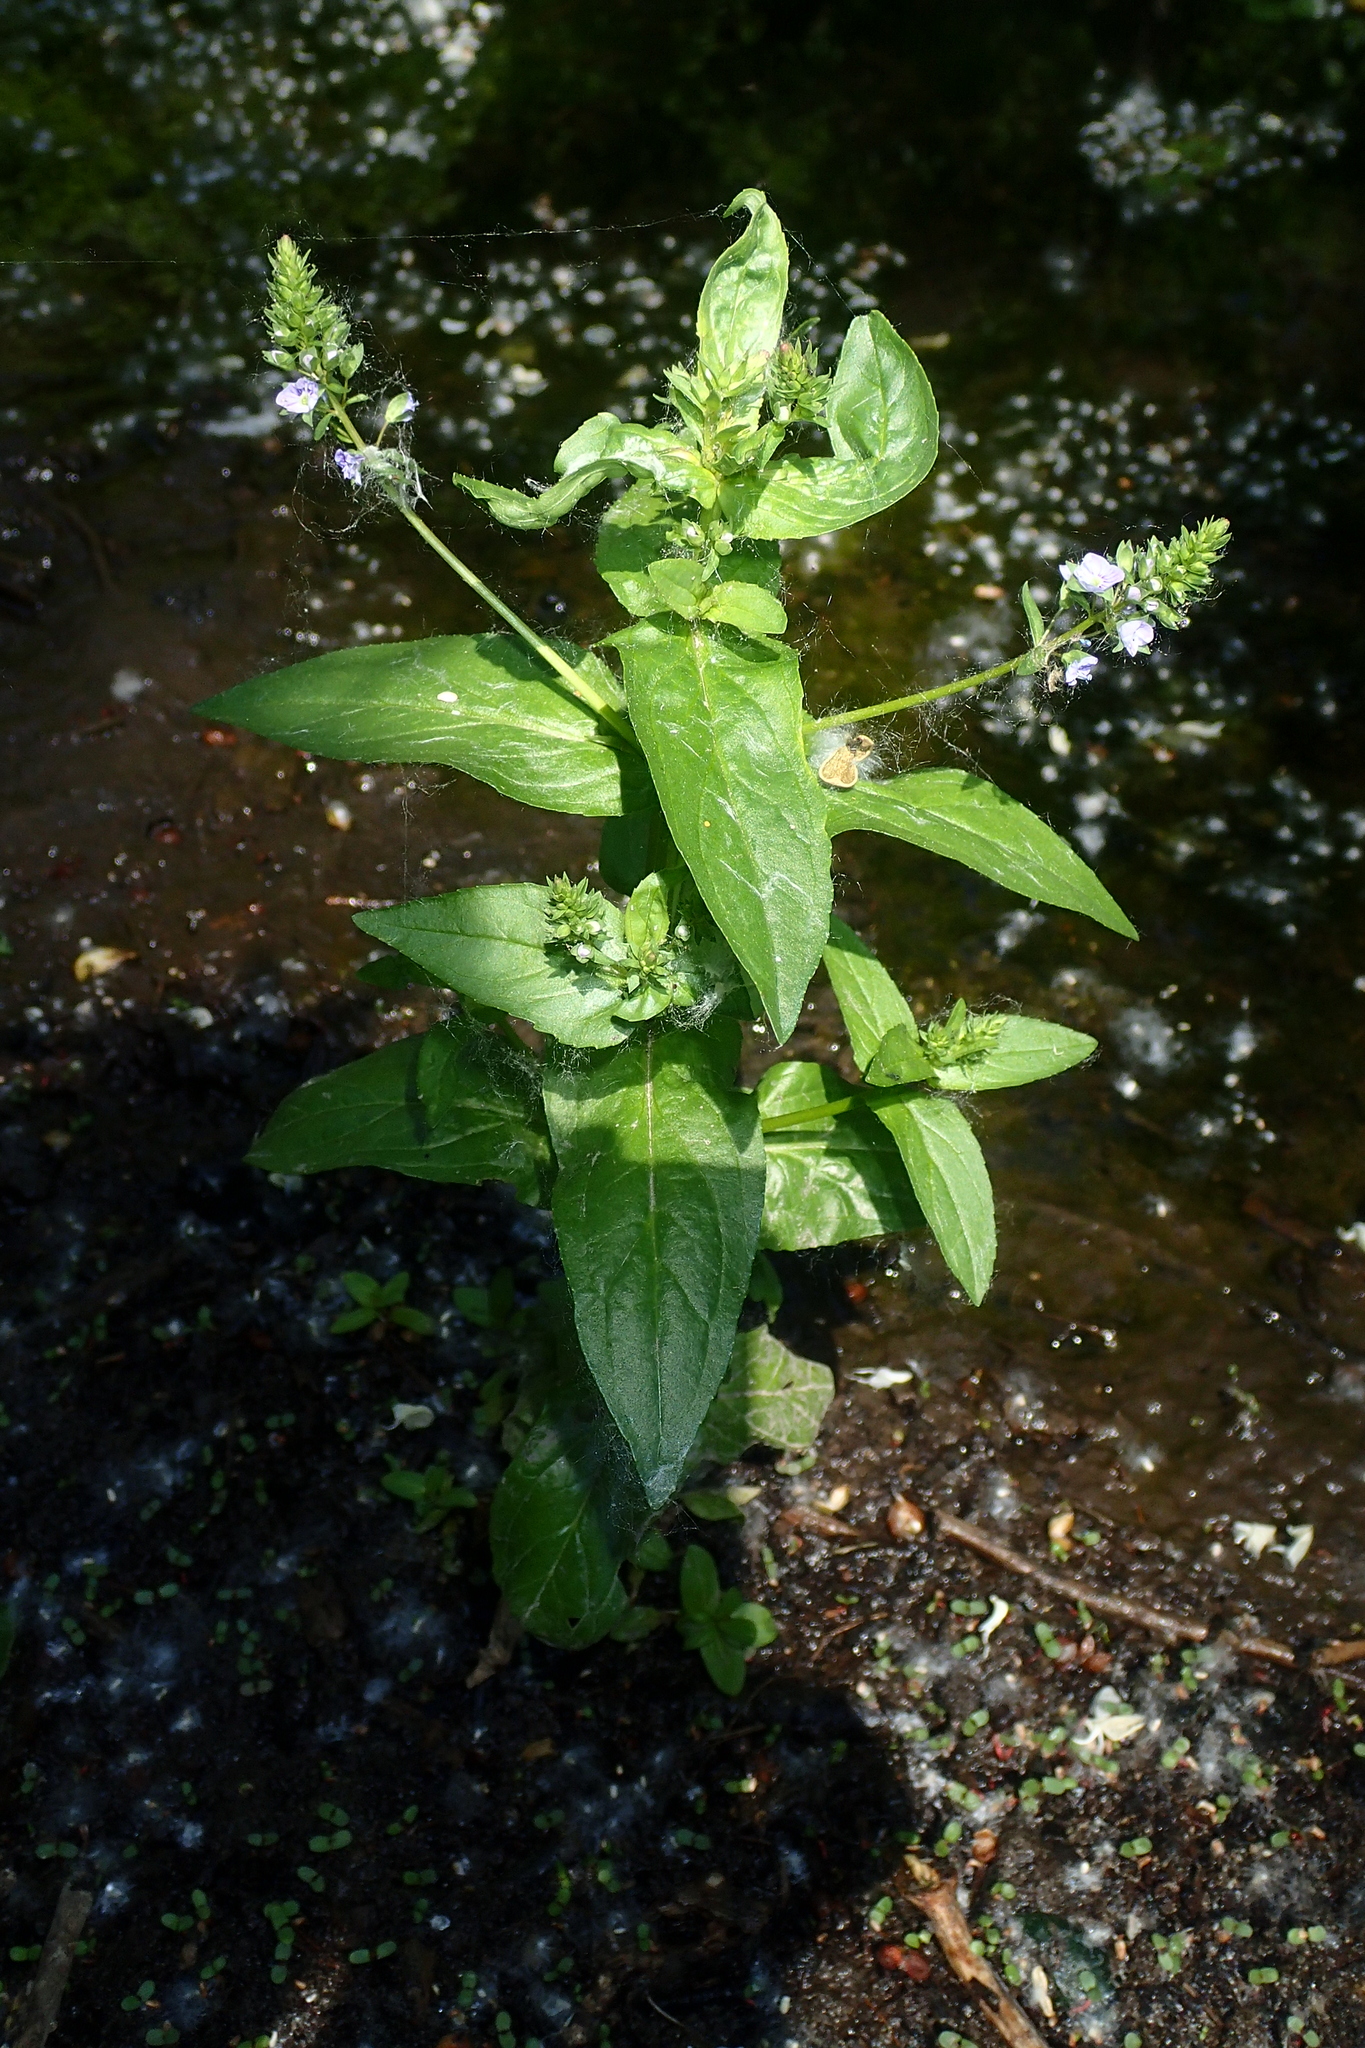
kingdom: Plantae
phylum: Tracheophyta
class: Magnoliopsida
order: Lamiales
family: Plantaginaceae
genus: Veronica
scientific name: Veronica anagallis-aquatica
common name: Water speedwell
